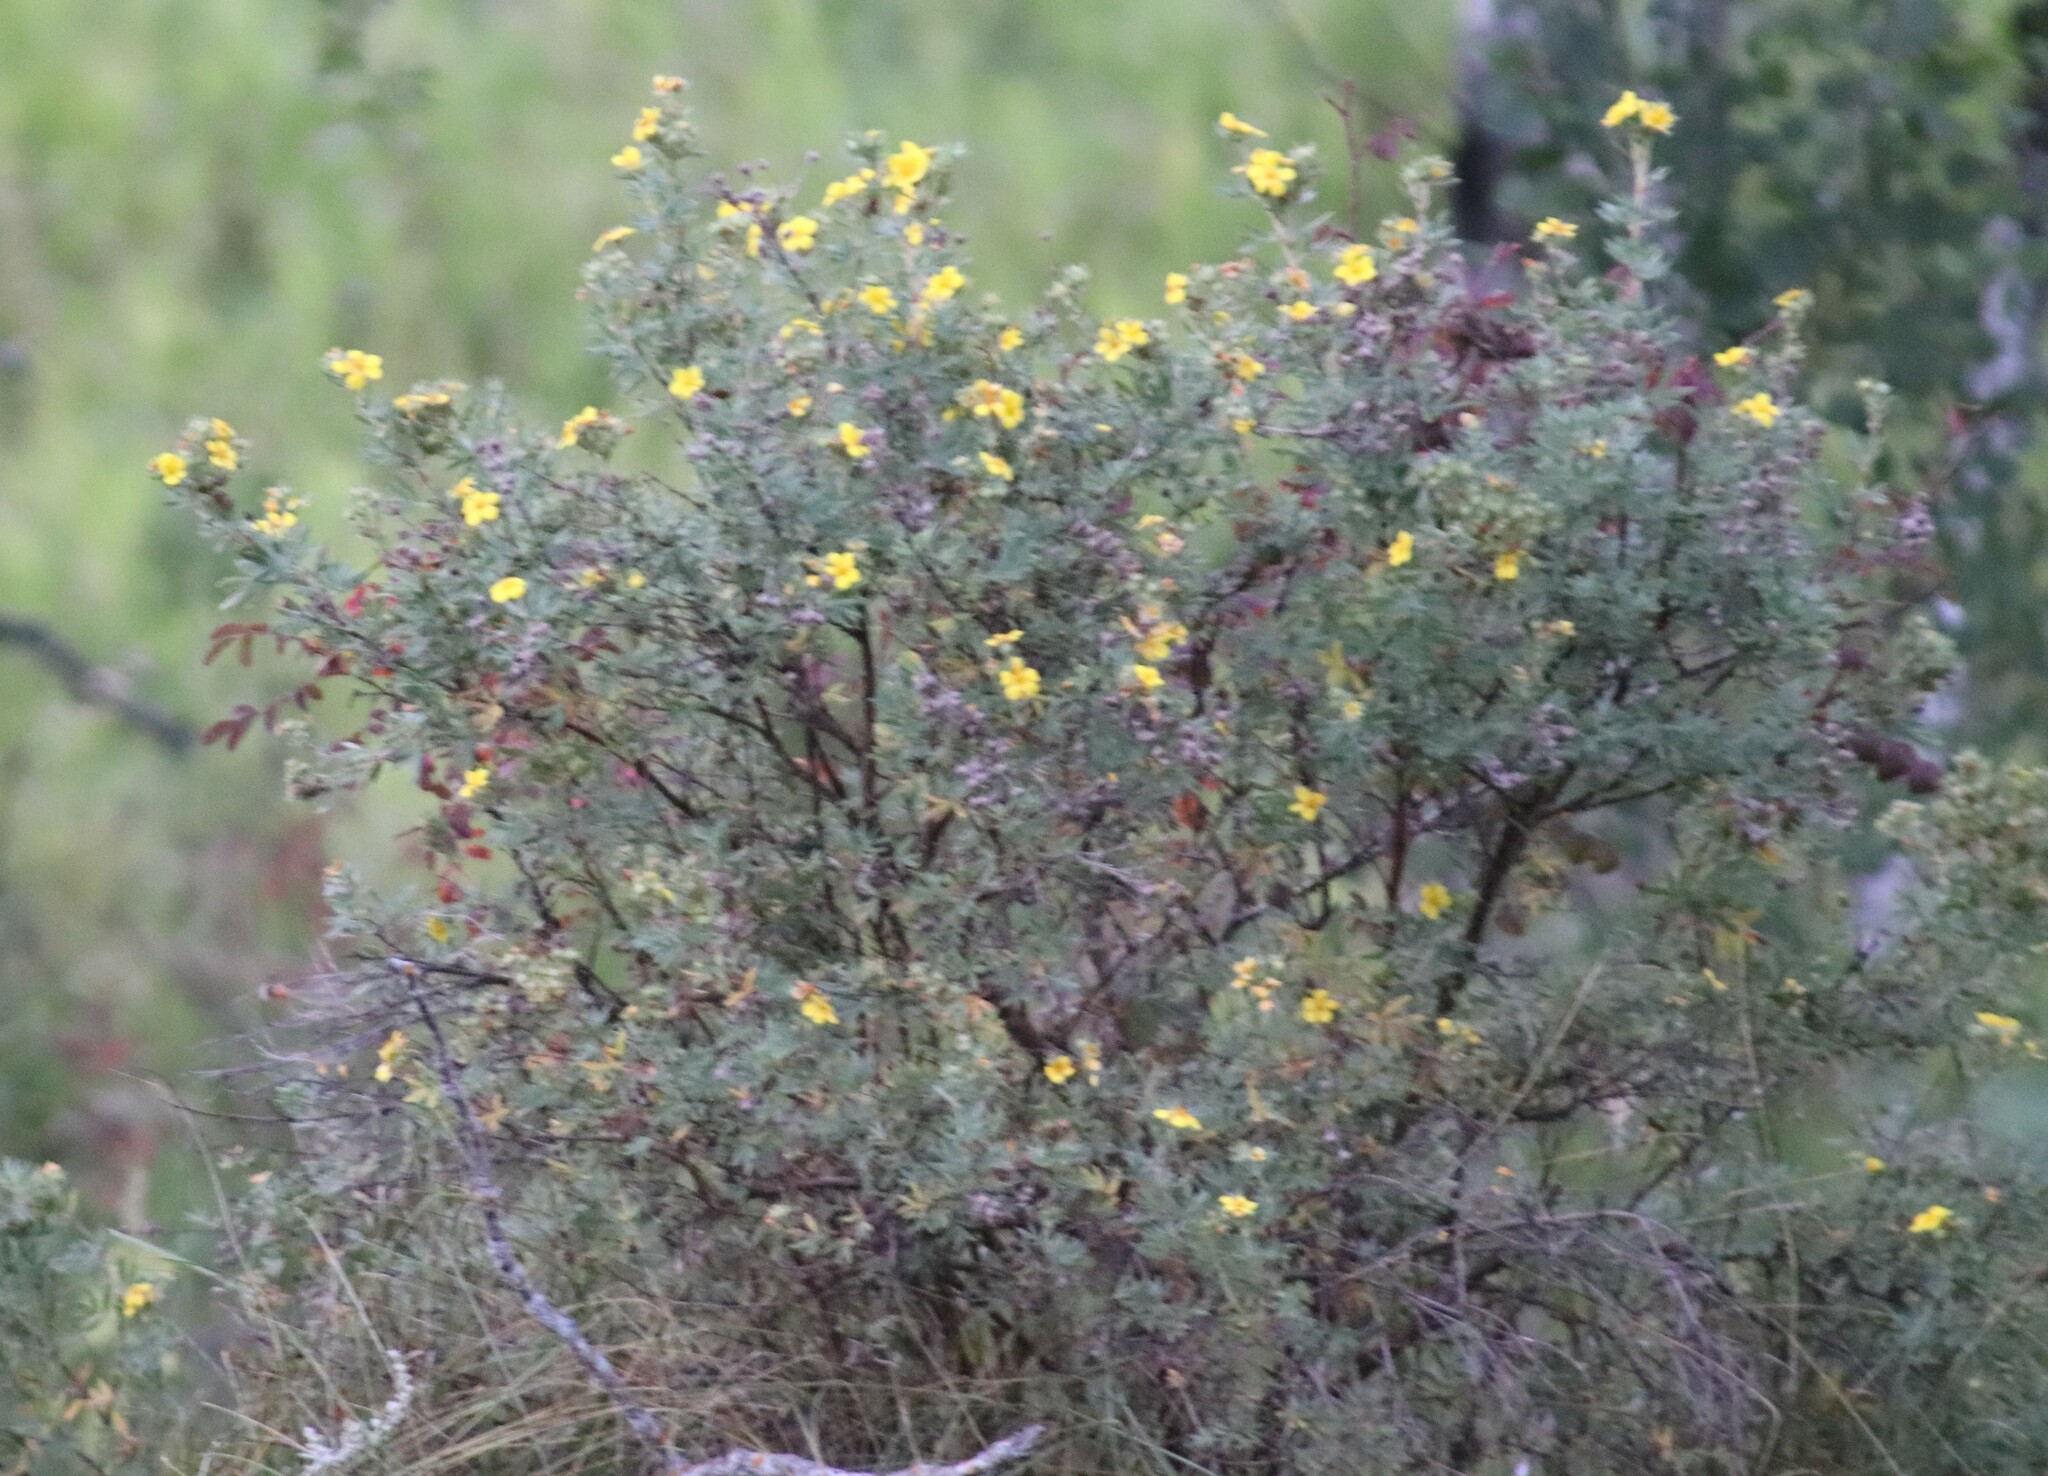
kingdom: Plantae
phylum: Tracheophyta
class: Magnoliopsida
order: Rosales
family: Rosaceae
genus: Dasiphora
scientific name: Dasiphora fruticosa
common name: Shrubby cinquefoil
